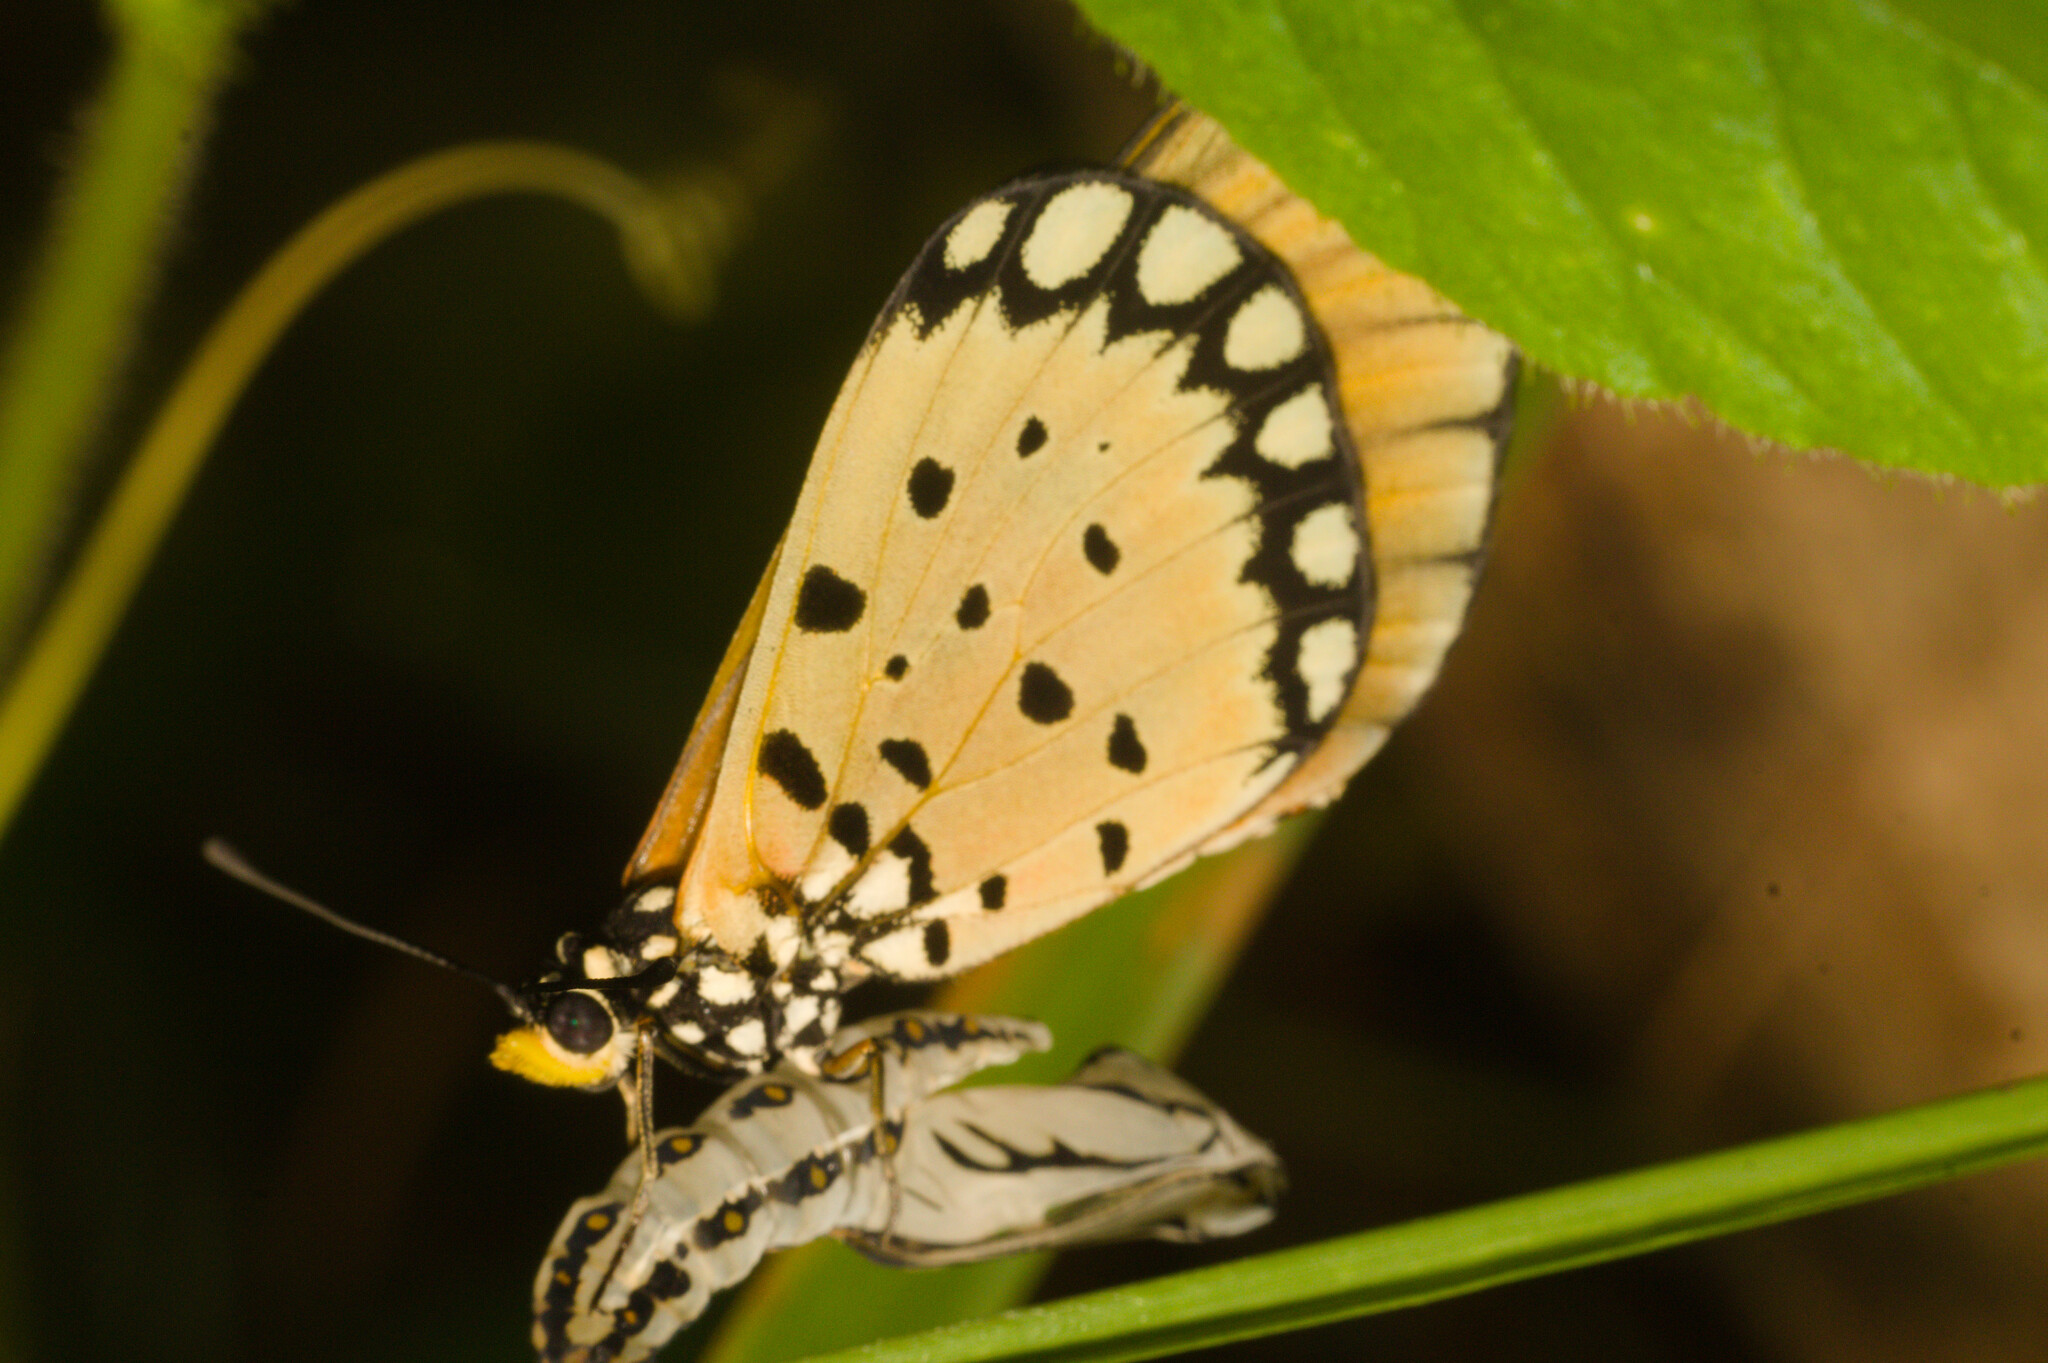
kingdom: Animalia
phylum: Arthropoda
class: Insecta
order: Lepidoptera
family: Nymphalidae
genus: Acraea
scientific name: Acraea terpsicore
